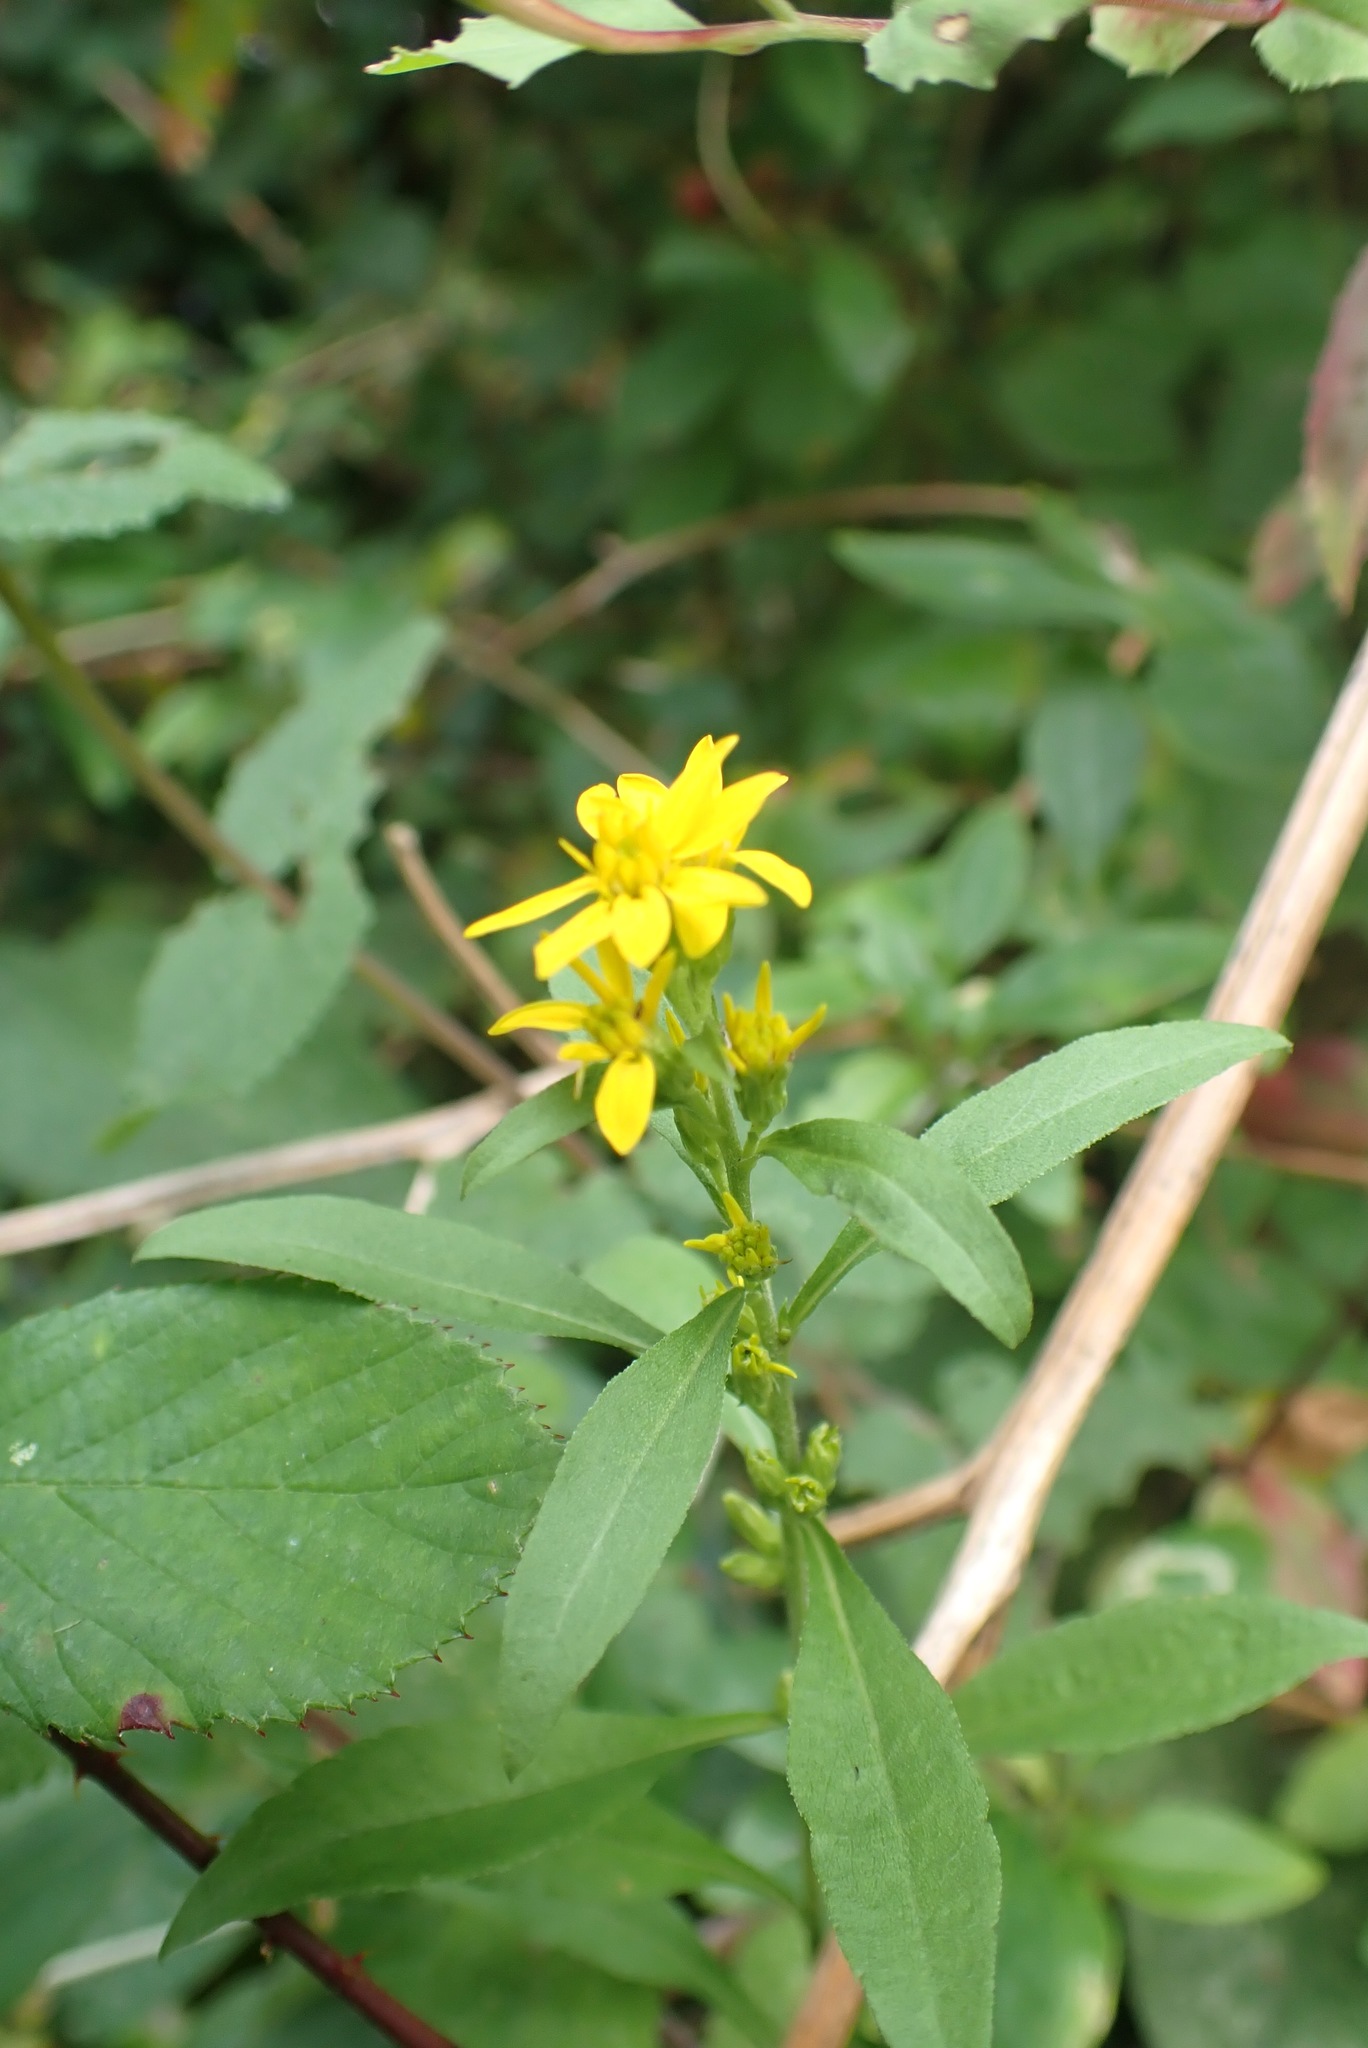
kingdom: Plantae
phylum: Tracheophyta
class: Magnoliopsida
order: Asterales
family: Asteraceae
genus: Solidago
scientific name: Solidago virgaurea
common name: Goldenrod
